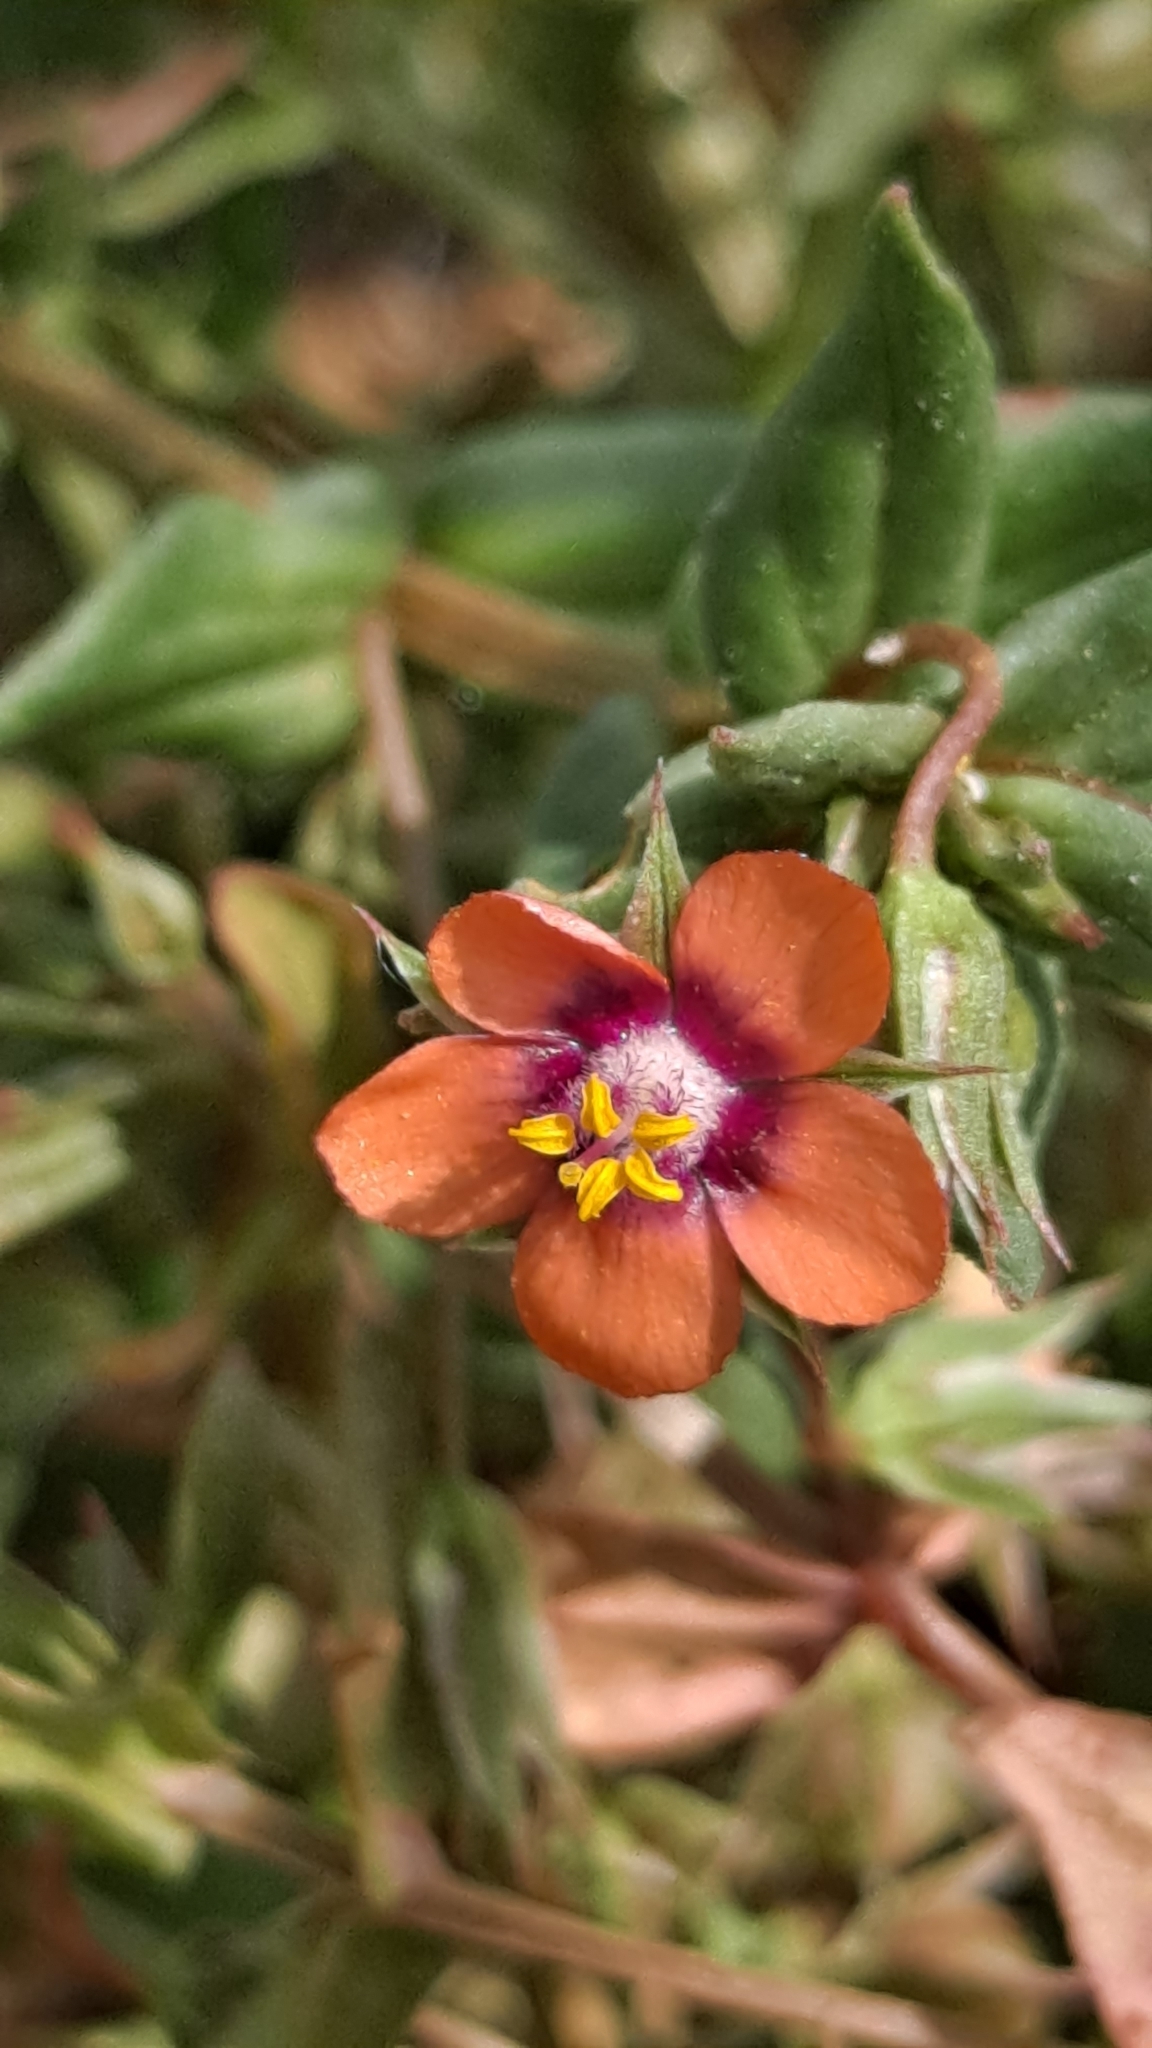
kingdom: Plantae
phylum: Tracheophyta
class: Magnoliopsida
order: Ericales
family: Primulaceae
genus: Lysimachia
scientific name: Lysimachia arvensis
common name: Scarlet pimpernel
